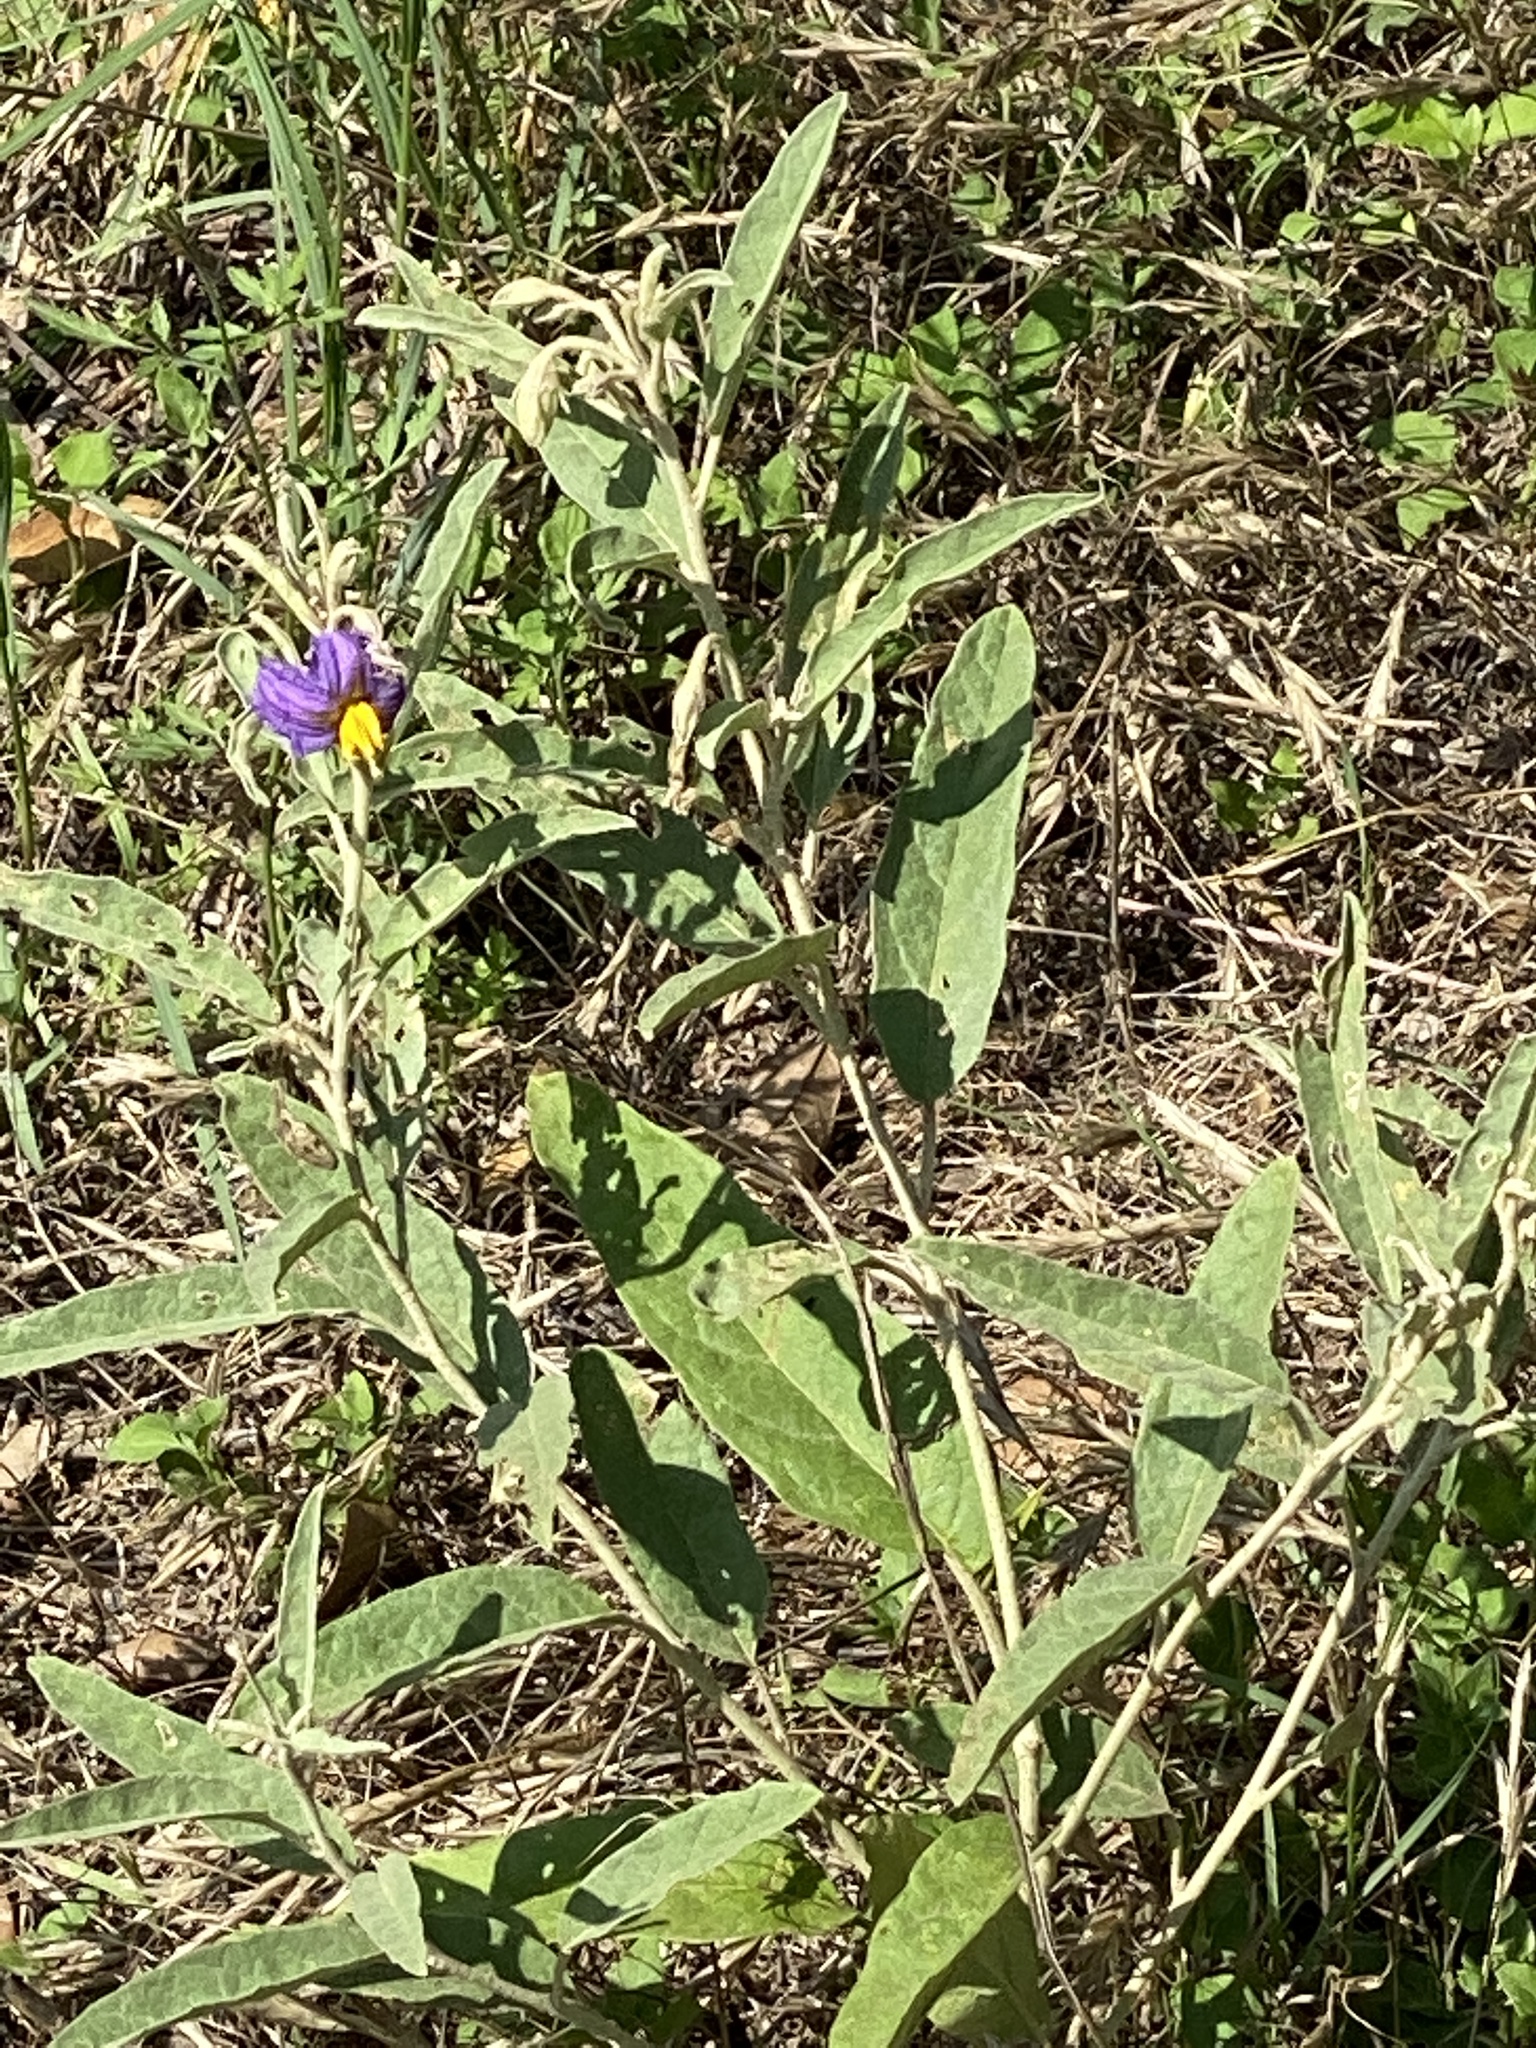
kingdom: Plantae
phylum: Tracheophyta
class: Magnoliopsida
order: Solanales
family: Solanaceae
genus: Solanum
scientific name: Solanum elaeagnifolium
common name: Silverleaf nightshade
